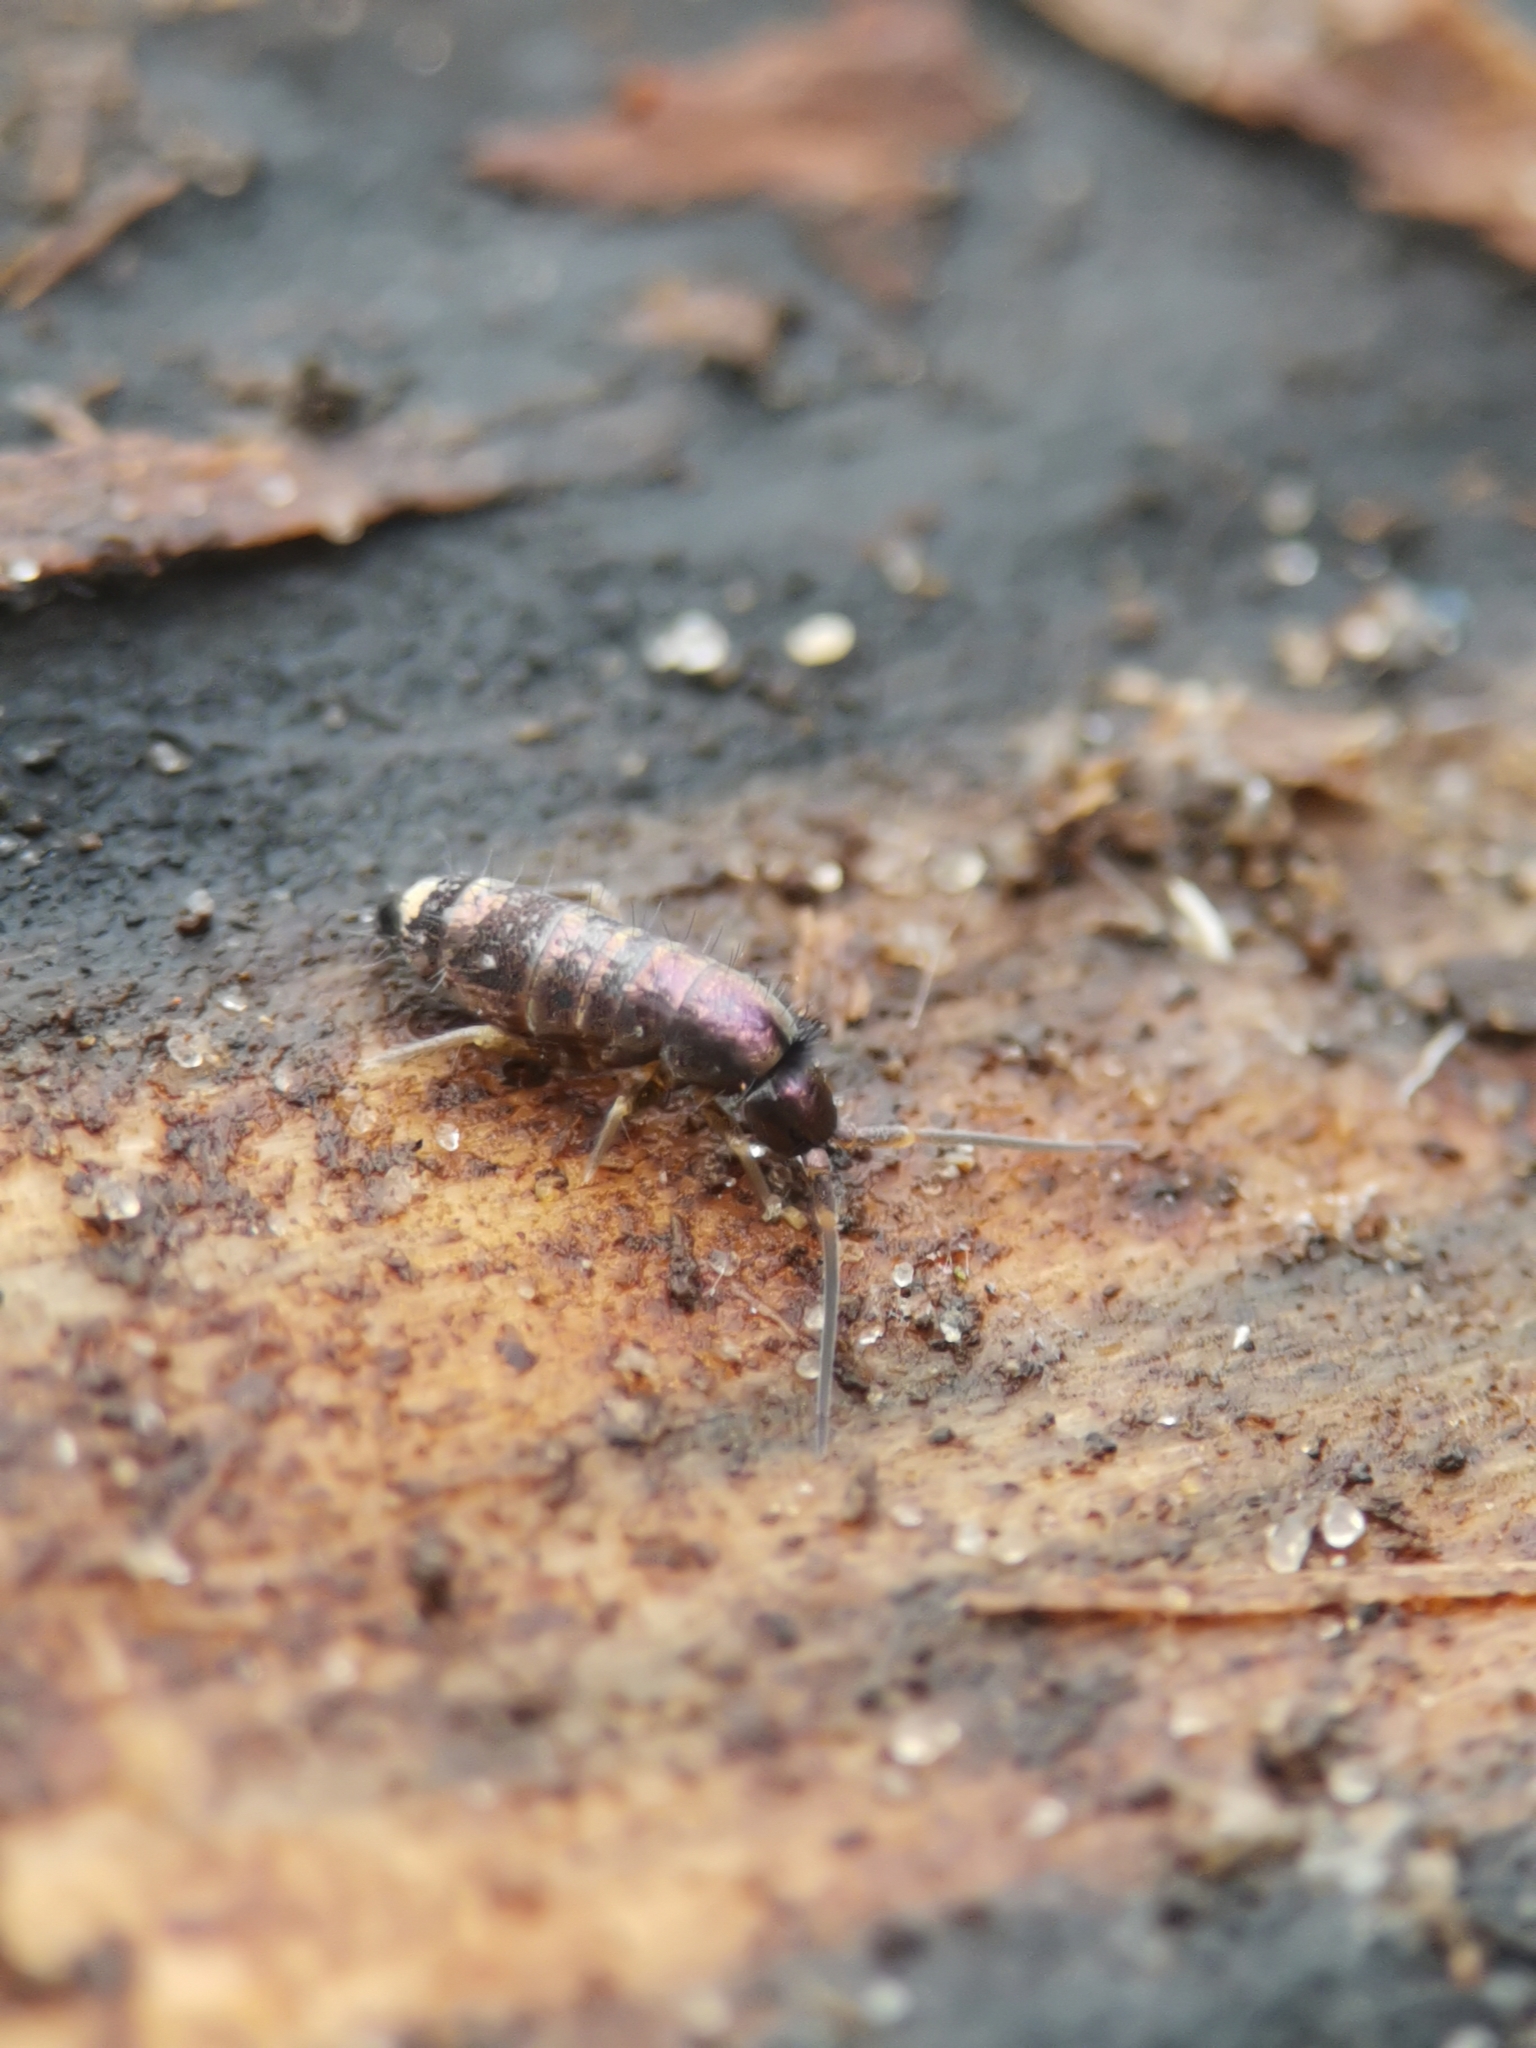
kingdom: Animalia
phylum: Arthropoda
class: Collembola
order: Entomobryomorpha
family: Tomoceridae
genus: Tomocerus
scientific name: Tomocerus vulgaris
